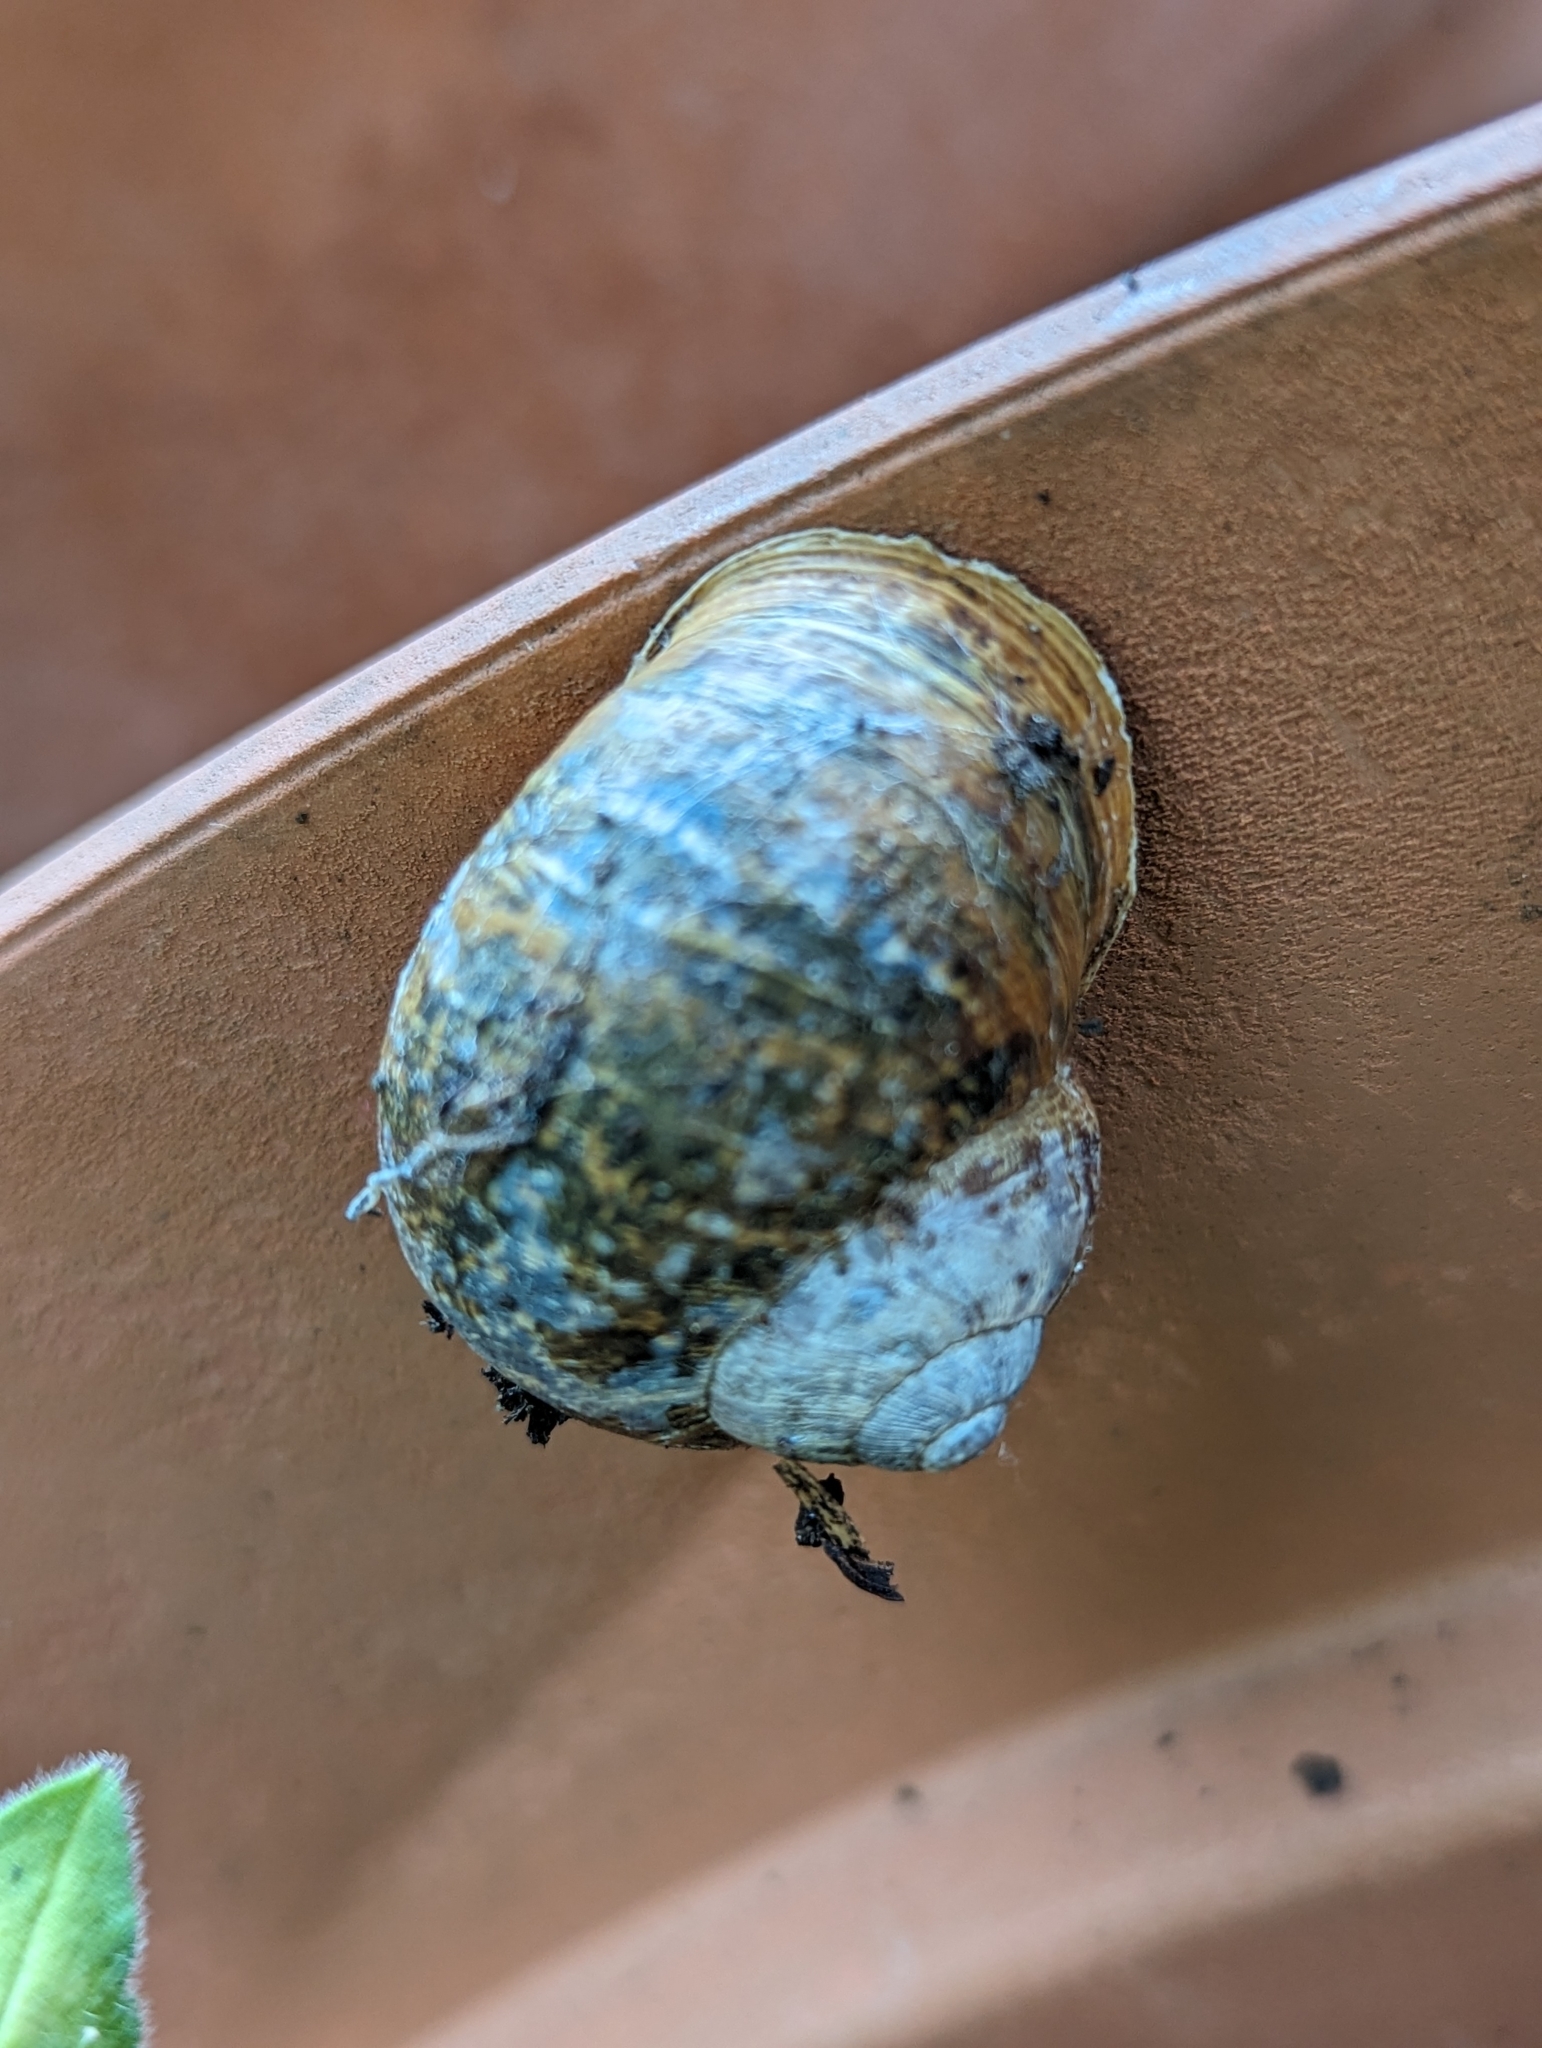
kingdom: Animalia
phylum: Mollusca
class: Gastropoda
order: Stylommatophora
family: Helicidae
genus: Cornu
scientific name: Cornu aspersum
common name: Brown garden snail
